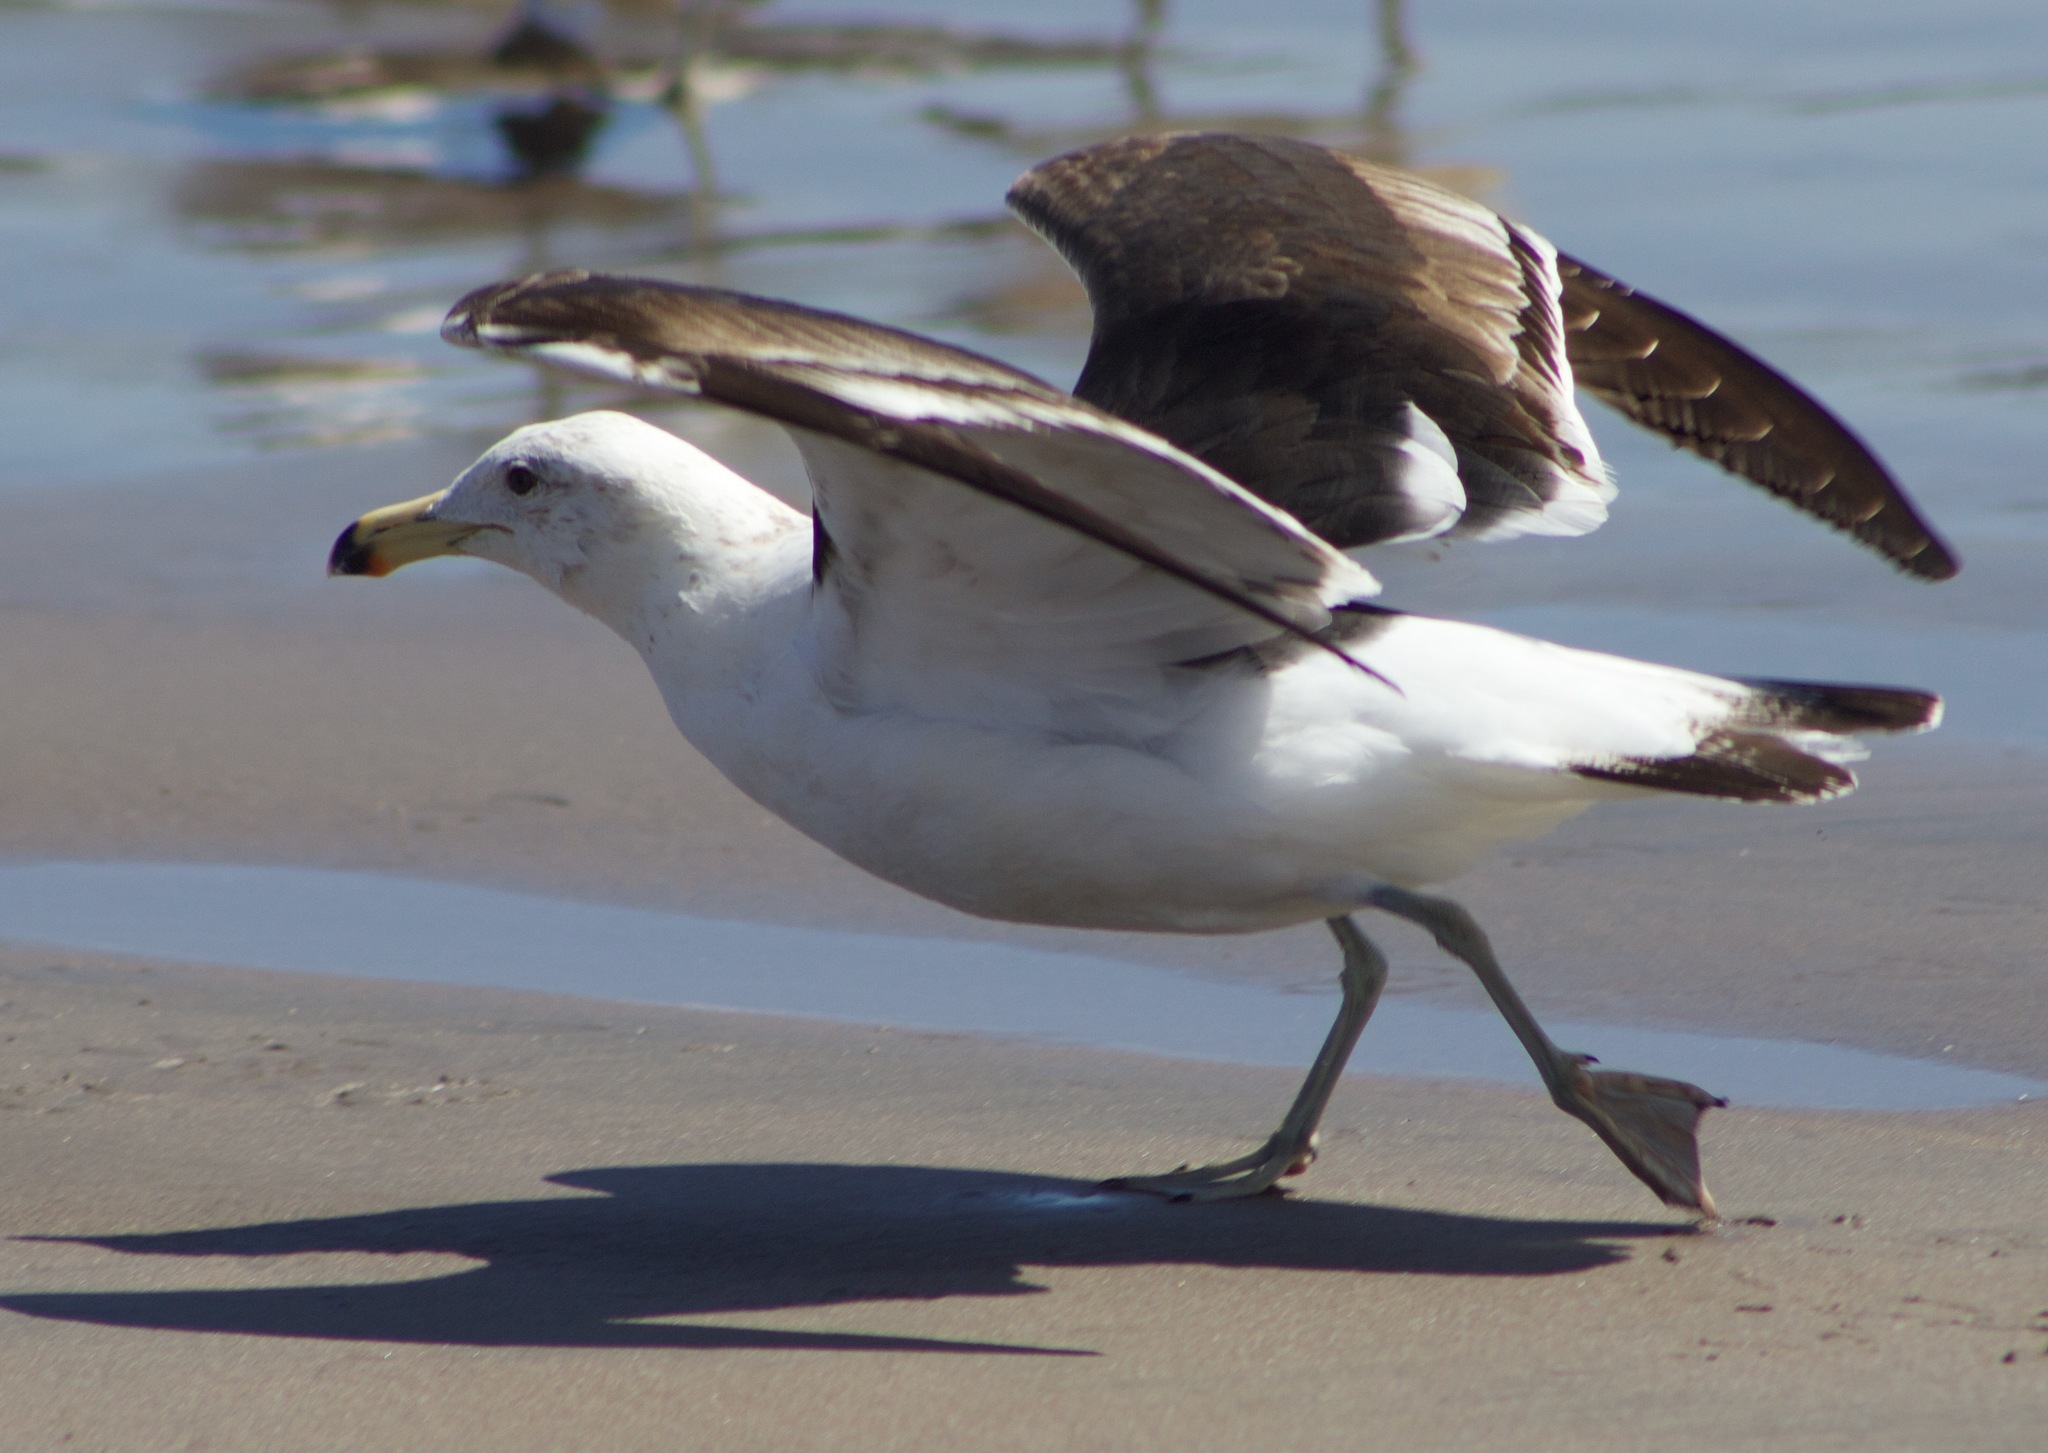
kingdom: Animalia
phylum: Chordata
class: Aves
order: Charadriiformes
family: Laridae
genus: Larus
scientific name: Larus dominicanus
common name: Kelp gull
